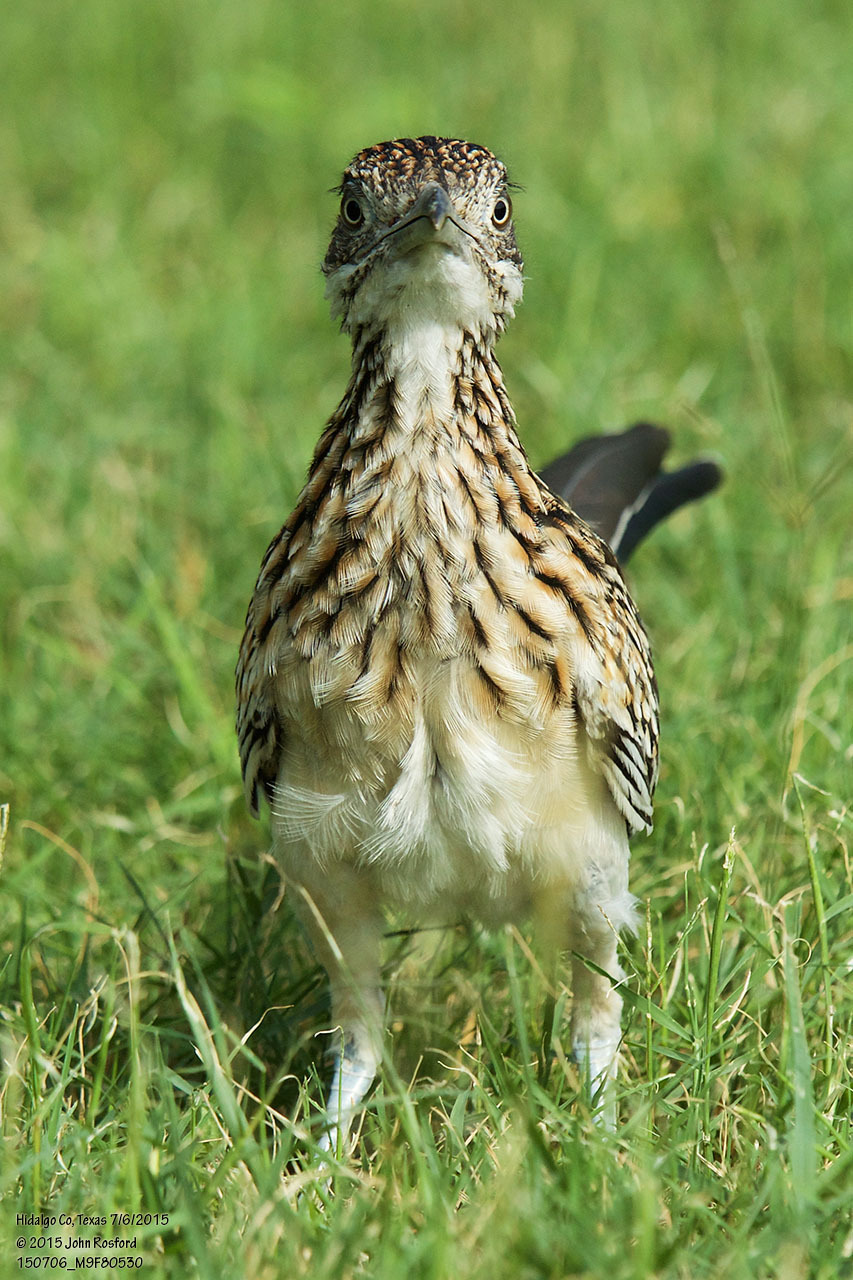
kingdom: Animalia
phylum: Chordata
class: Aves
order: Cuculiformes
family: Cuculidae
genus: Geococcyx
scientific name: Geococcyx californianus
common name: Greater roadrunner
